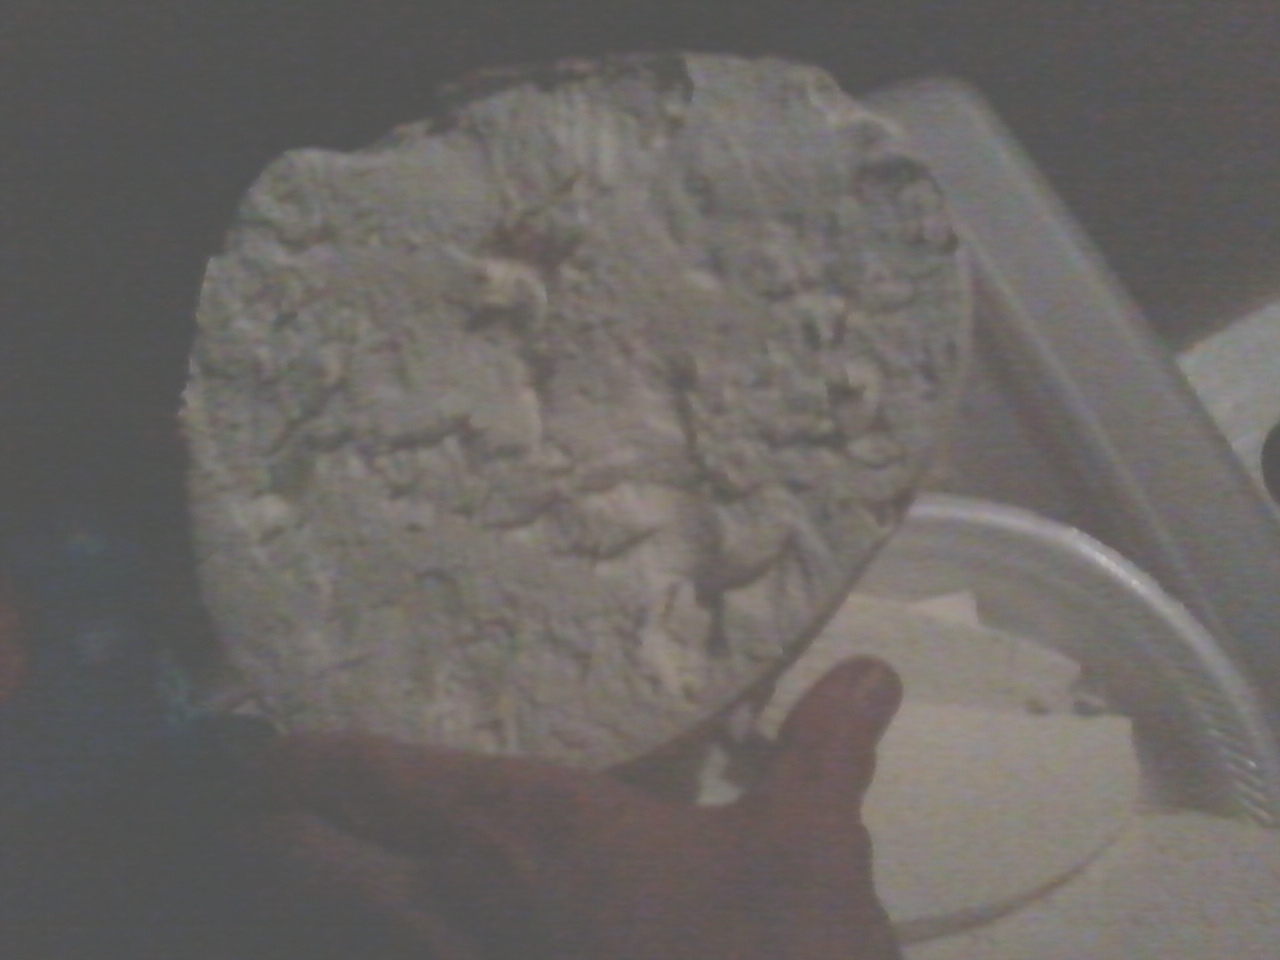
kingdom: Fungi
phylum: Basidiomycota
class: Agaricomycetes
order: Agaricales
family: Lycoperdaceae
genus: Calvatia
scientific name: Calvatia gigantea
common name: Giant puffball
